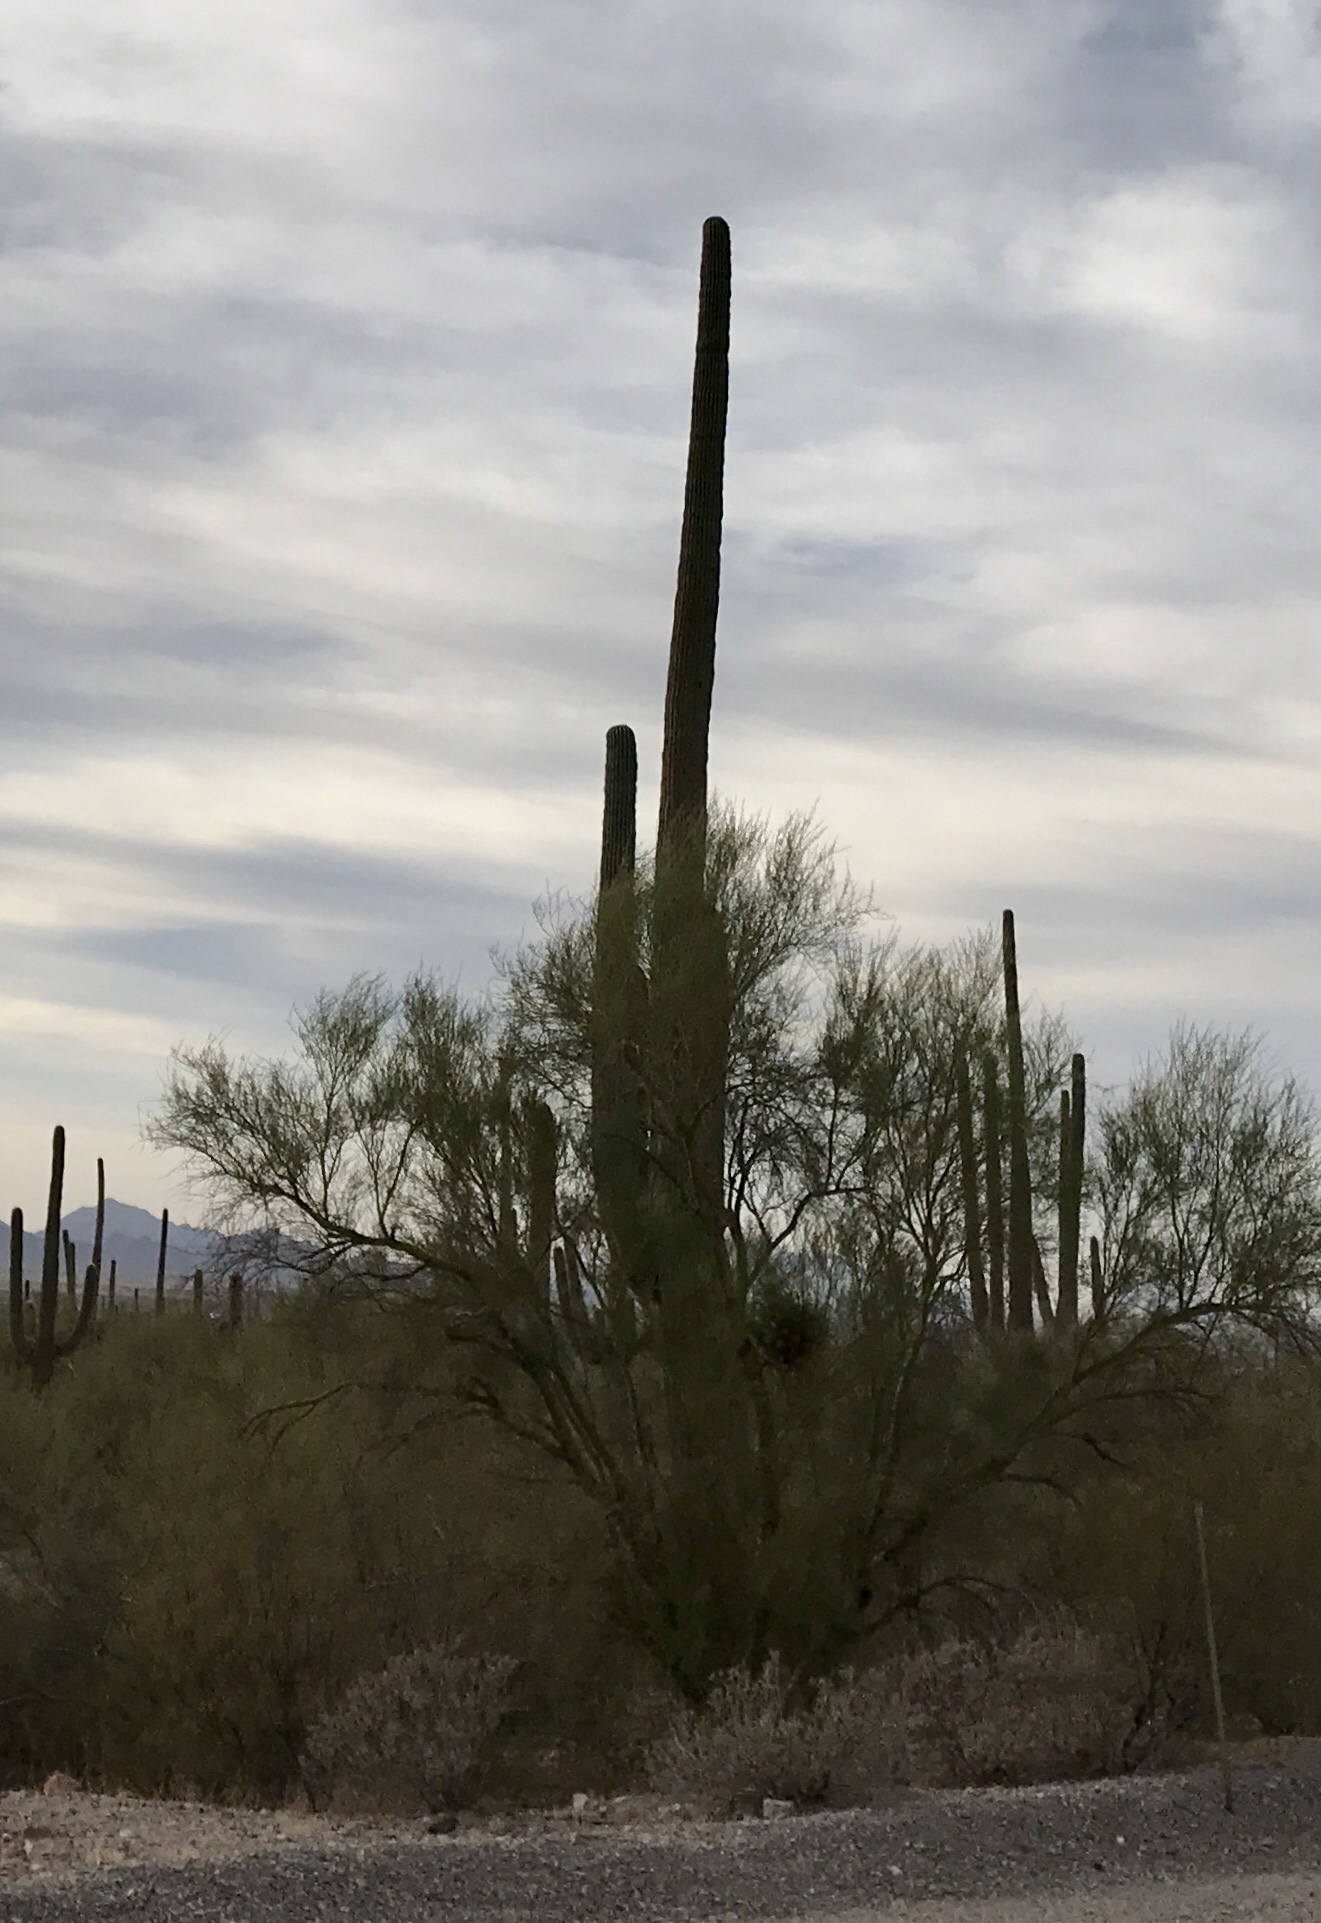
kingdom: Plantae
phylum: Tracheophyta
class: Magnoliopsida
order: Caryophyllales
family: Cactaceae
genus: Carnegiea
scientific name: Carnegiea gigantea
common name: Saguaro
